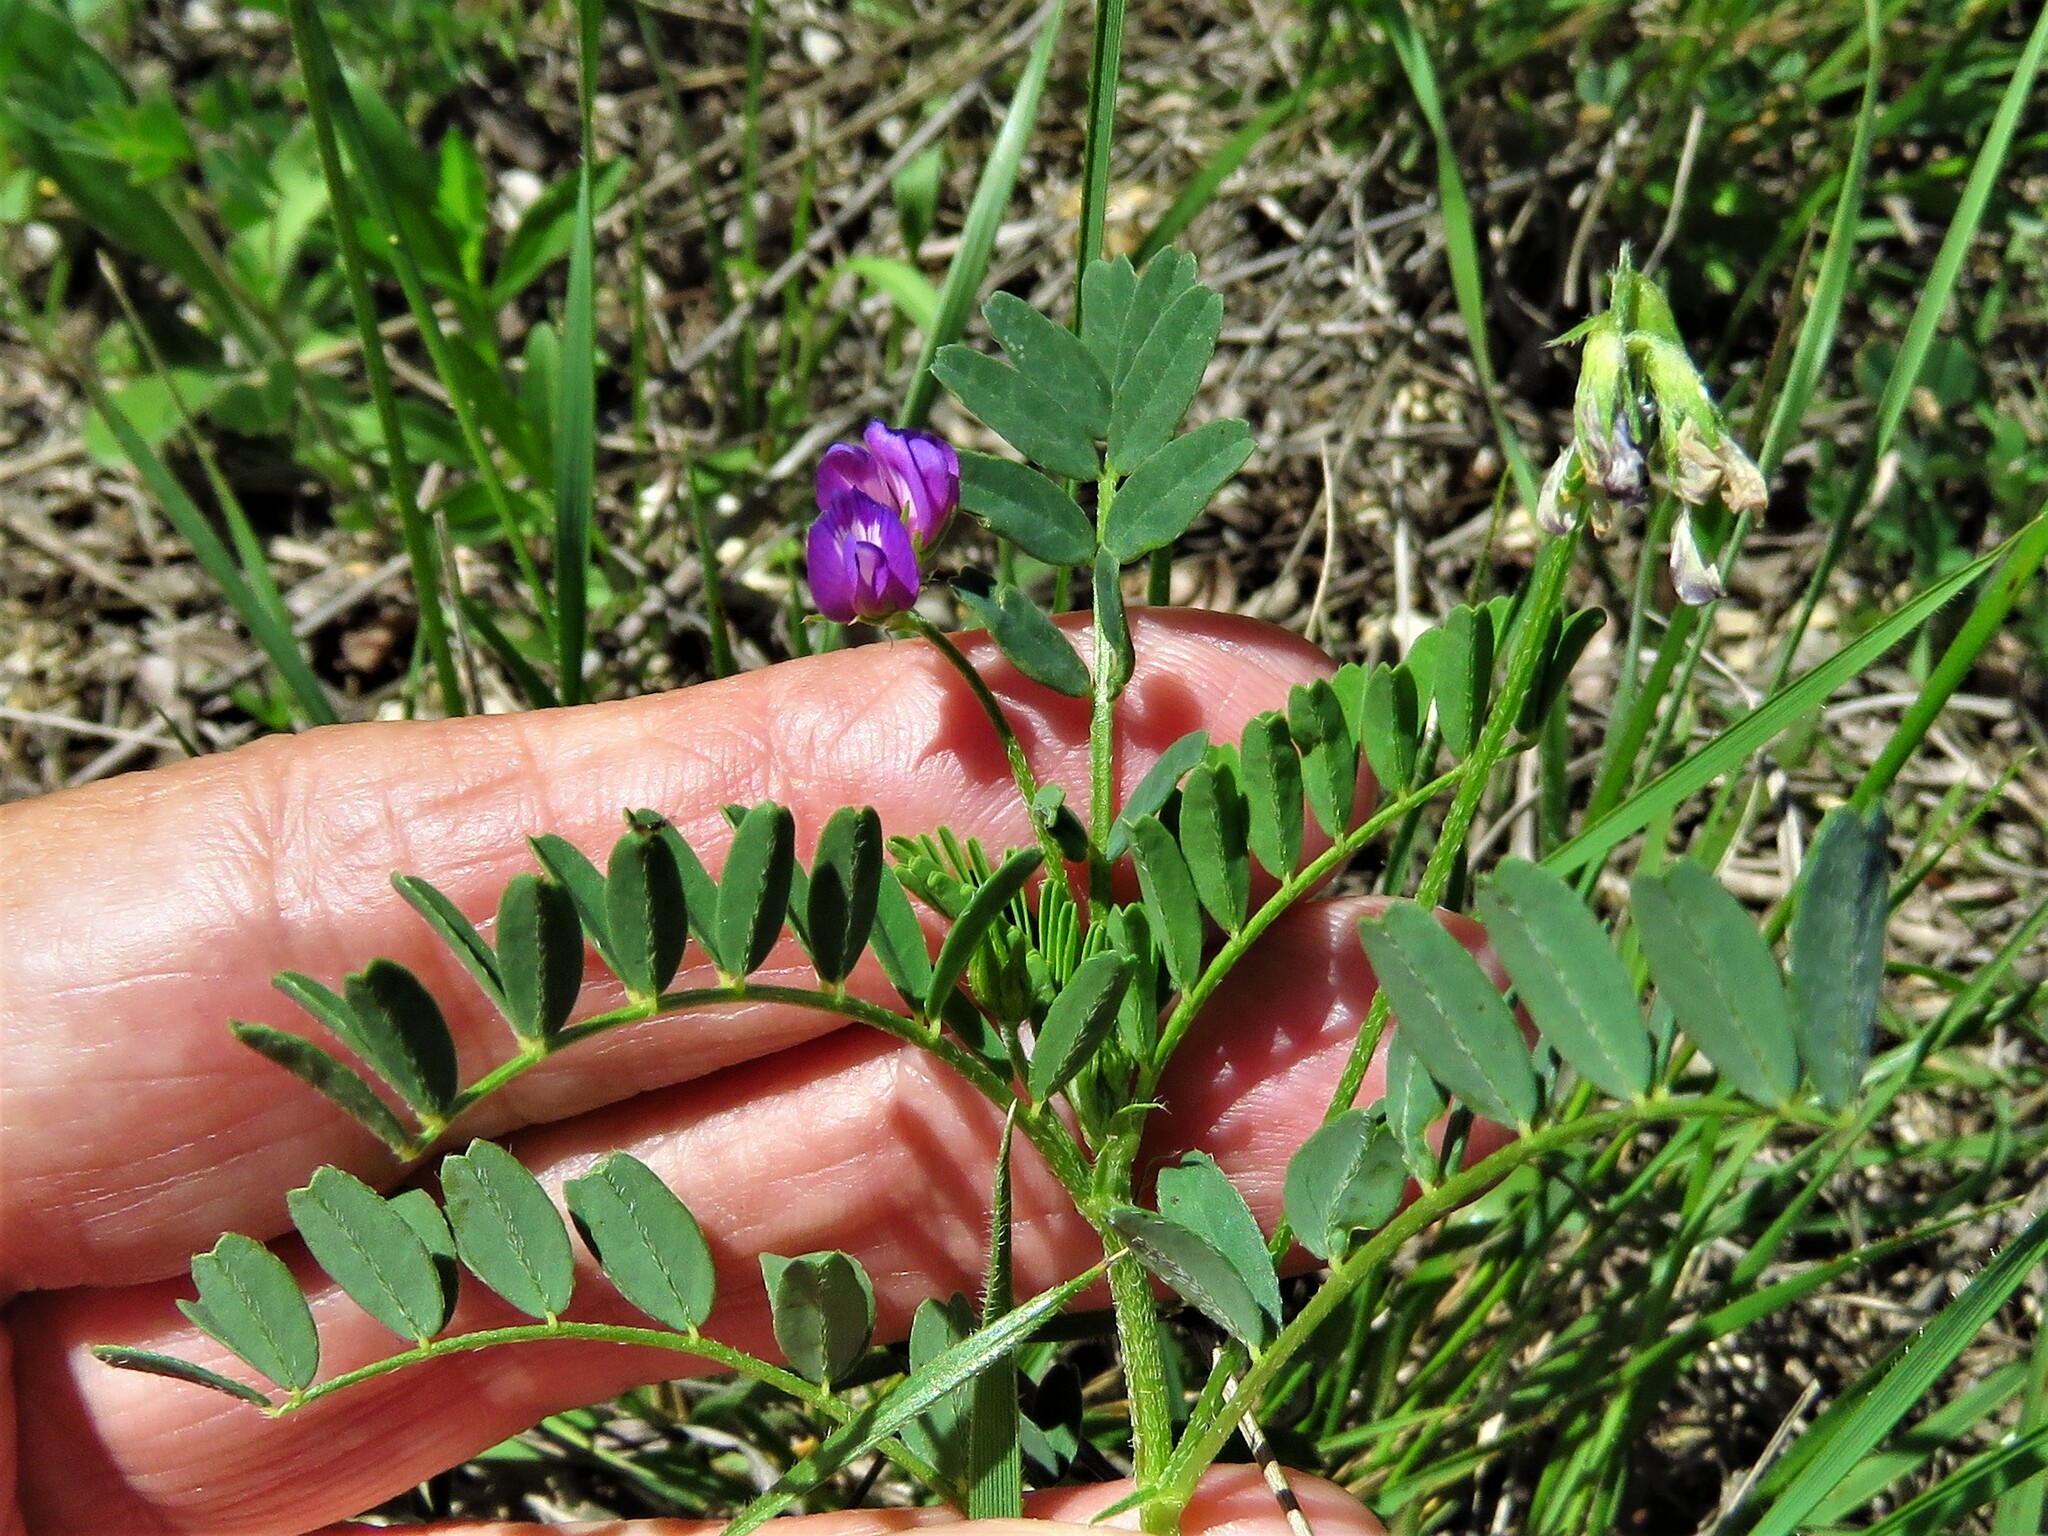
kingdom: Plantae
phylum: Tracheophyta
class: Magnoliopsida
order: Fabales
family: Fabaceae
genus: Astragalus
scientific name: Astragalus nuttallianus
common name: Smallflowered milkvetch
